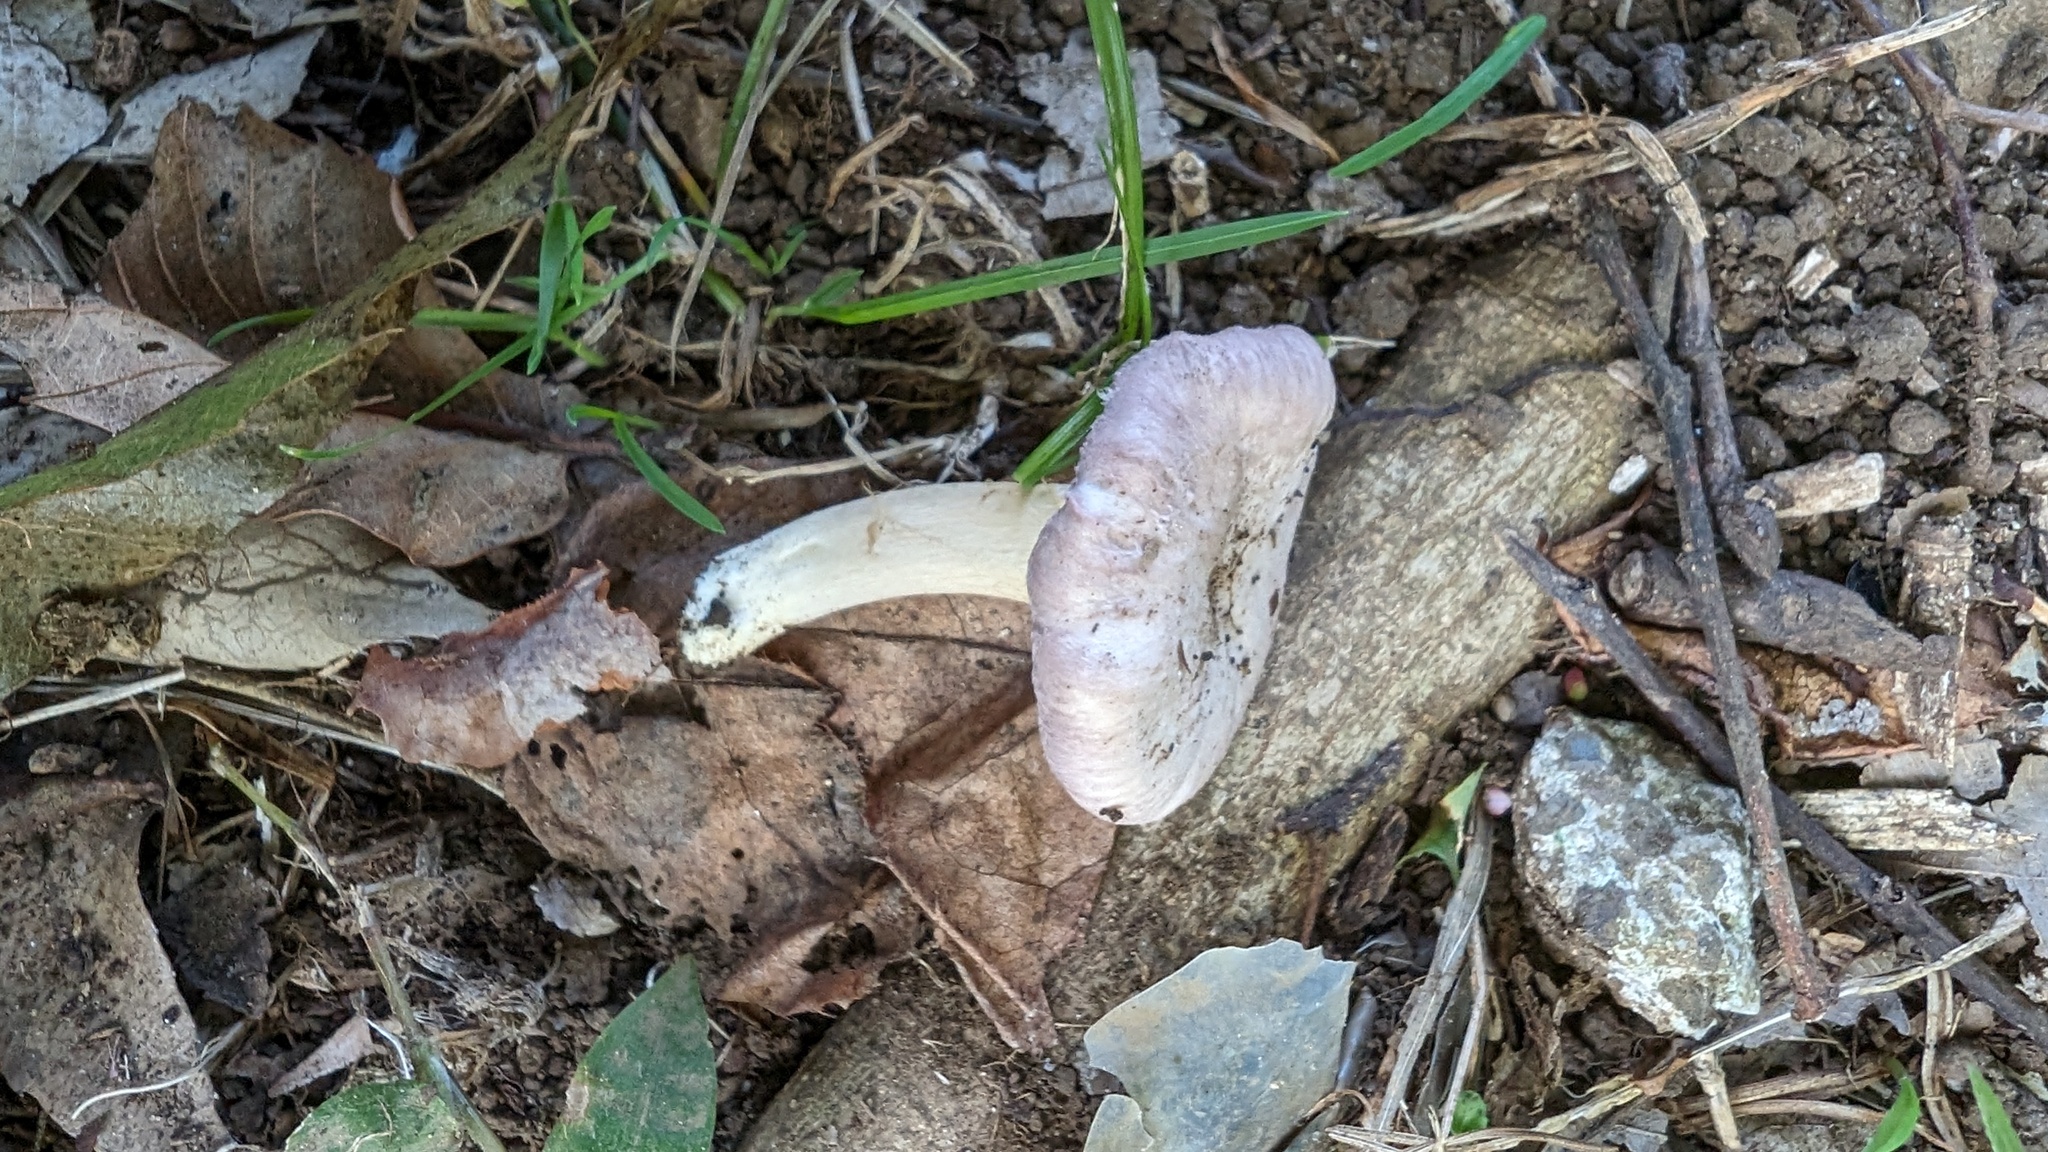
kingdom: Fungi
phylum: Basidiomycota
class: Agaricomycetes
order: Cantharellales
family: Hydnaceae
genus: Cantharellus
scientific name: Cantharellus atrolilacinus
